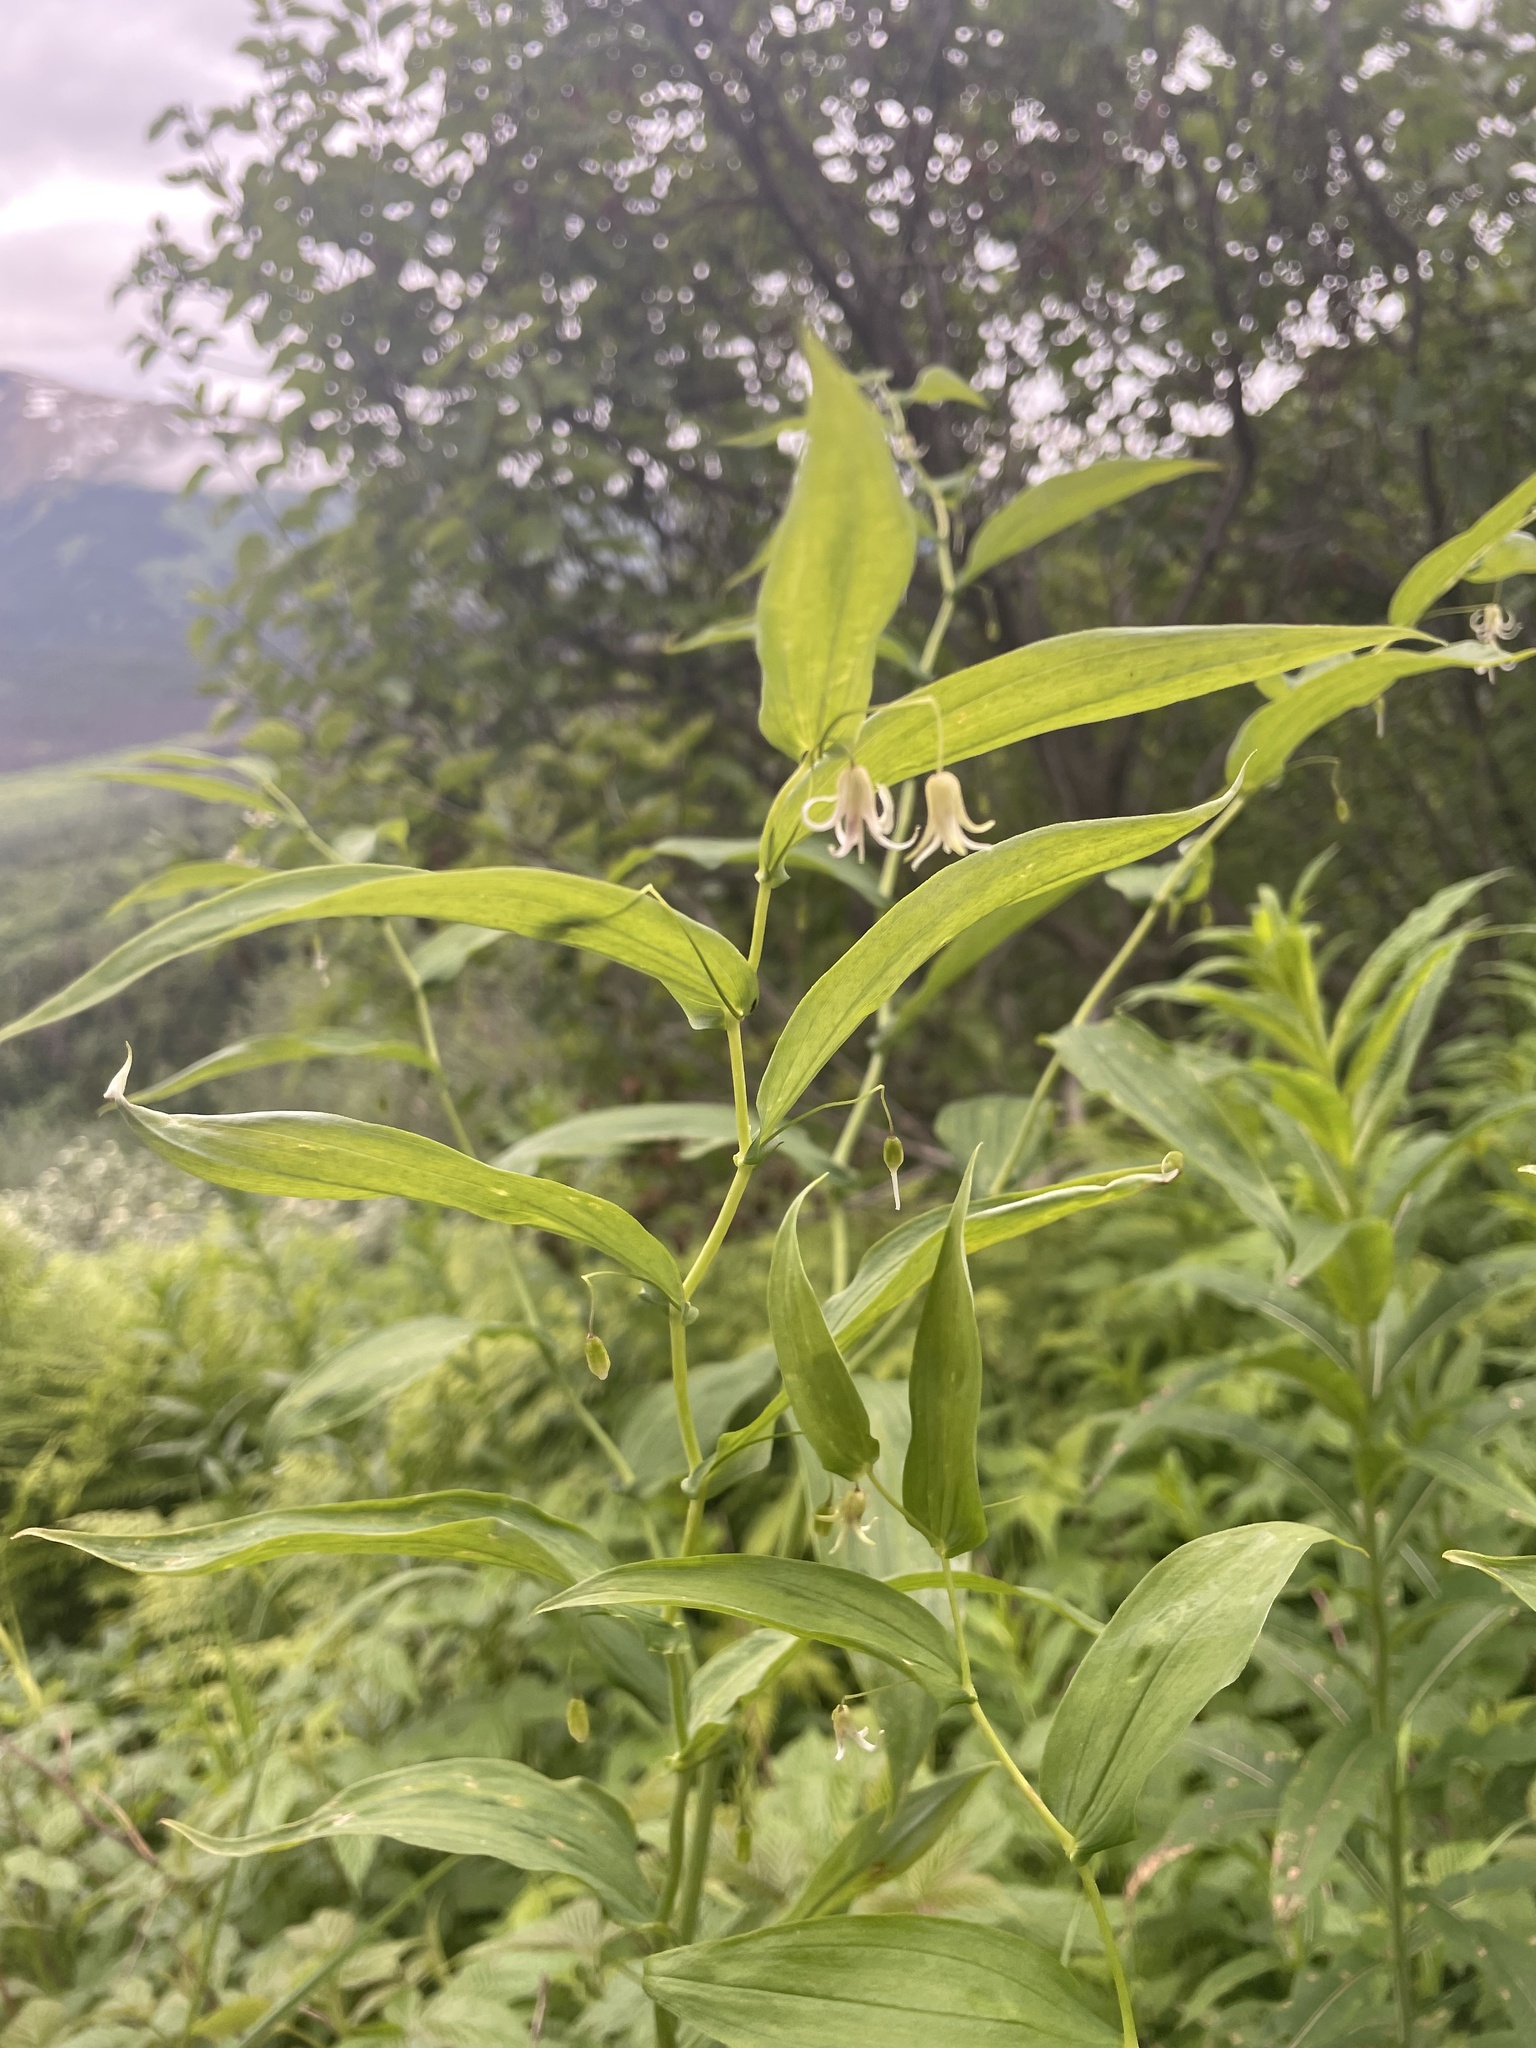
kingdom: Plantae
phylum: Tracheophyta
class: Liliopsida
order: Liliales
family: Liliaceae
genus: Streptopus
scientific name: Streptopus amplexifolius
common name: Clasp twisted stalk
